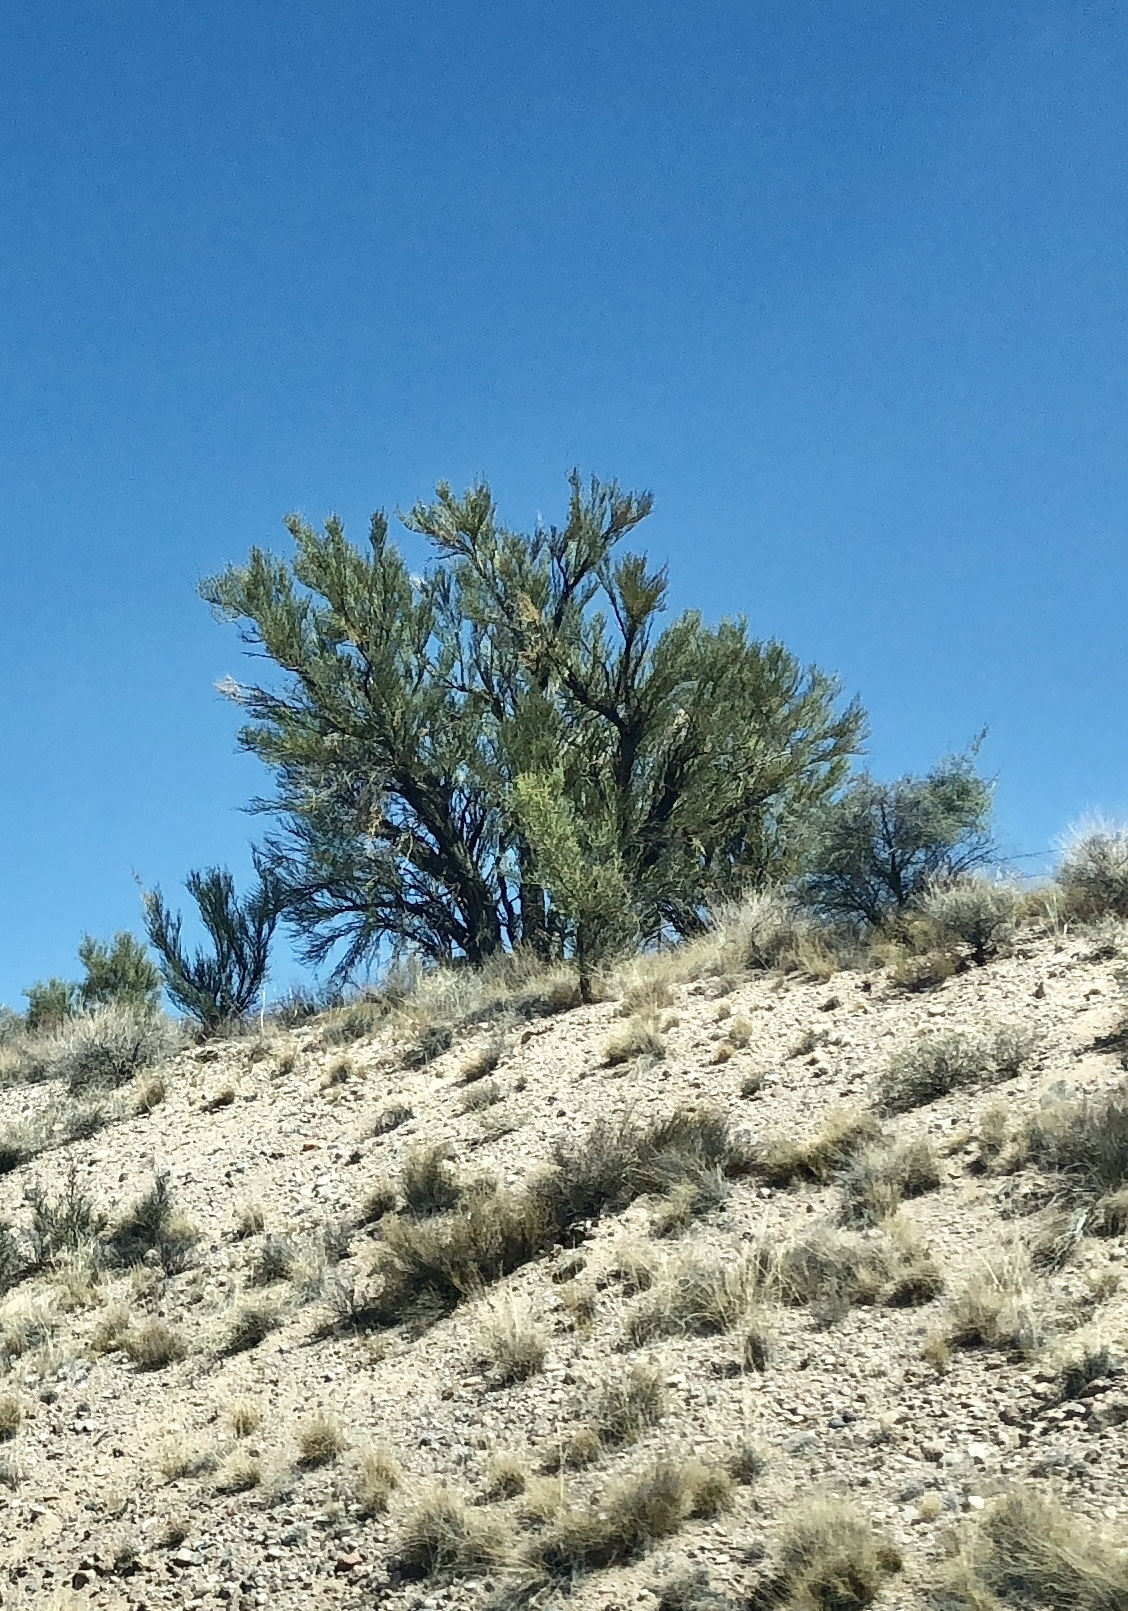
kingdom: Plantae
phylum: Tracheophyta
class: Magnoliopsida
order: Celastrales
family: Celastraceae
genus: Canotia
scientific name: Canotia holacantha
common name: Crucifixion thorns
